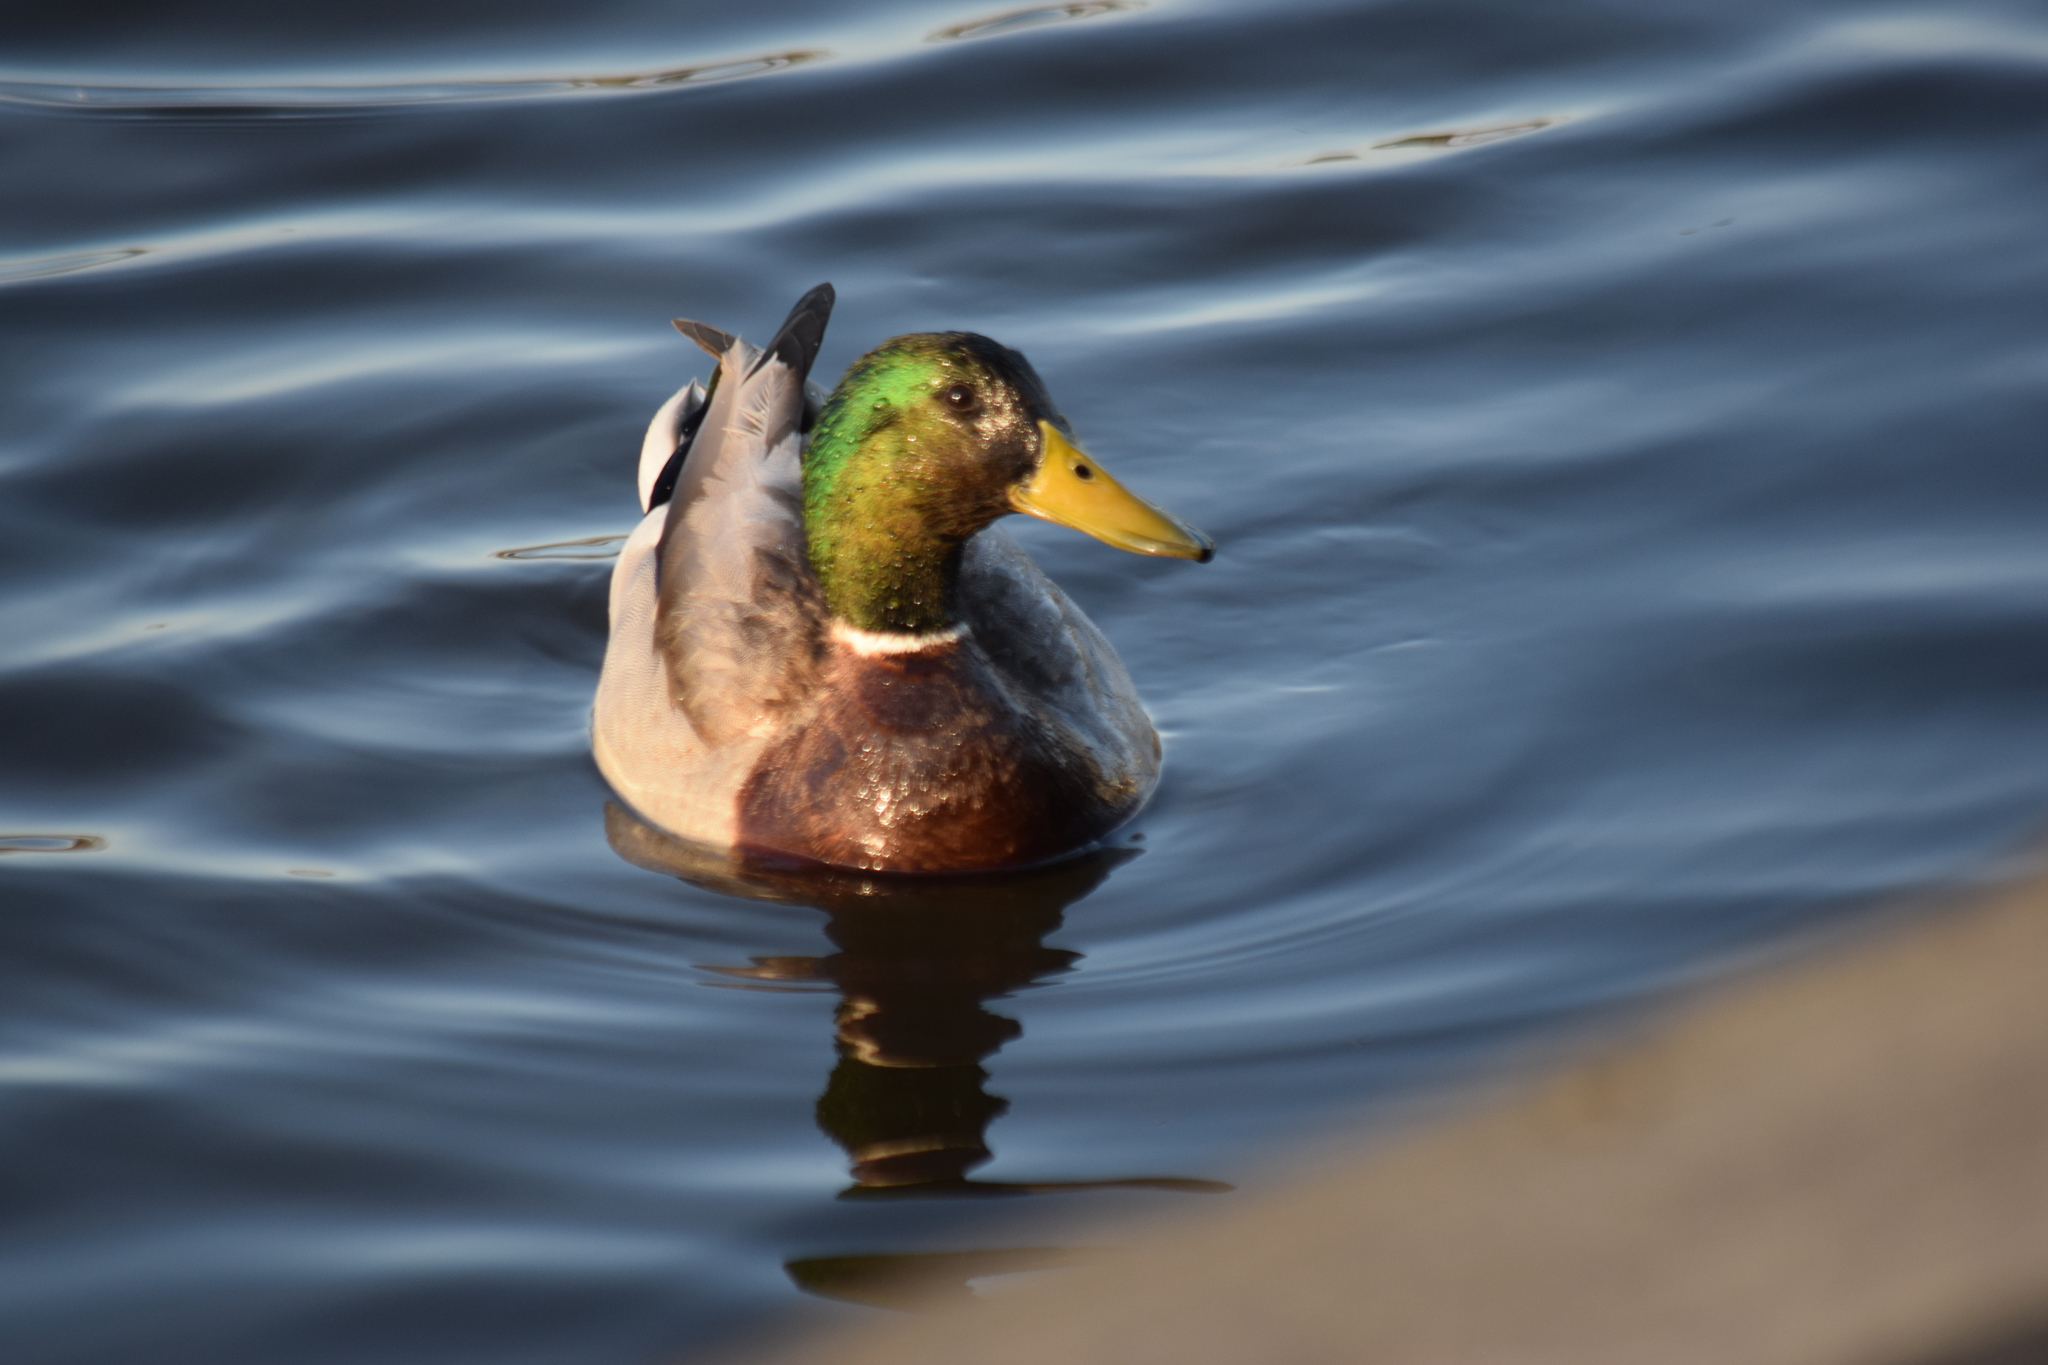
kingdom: Animalia
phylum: Chordata
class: Aves
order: Anseriformes
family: Anatidae
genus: Anas
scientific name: Anas platyrhynchos
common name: Mallard
